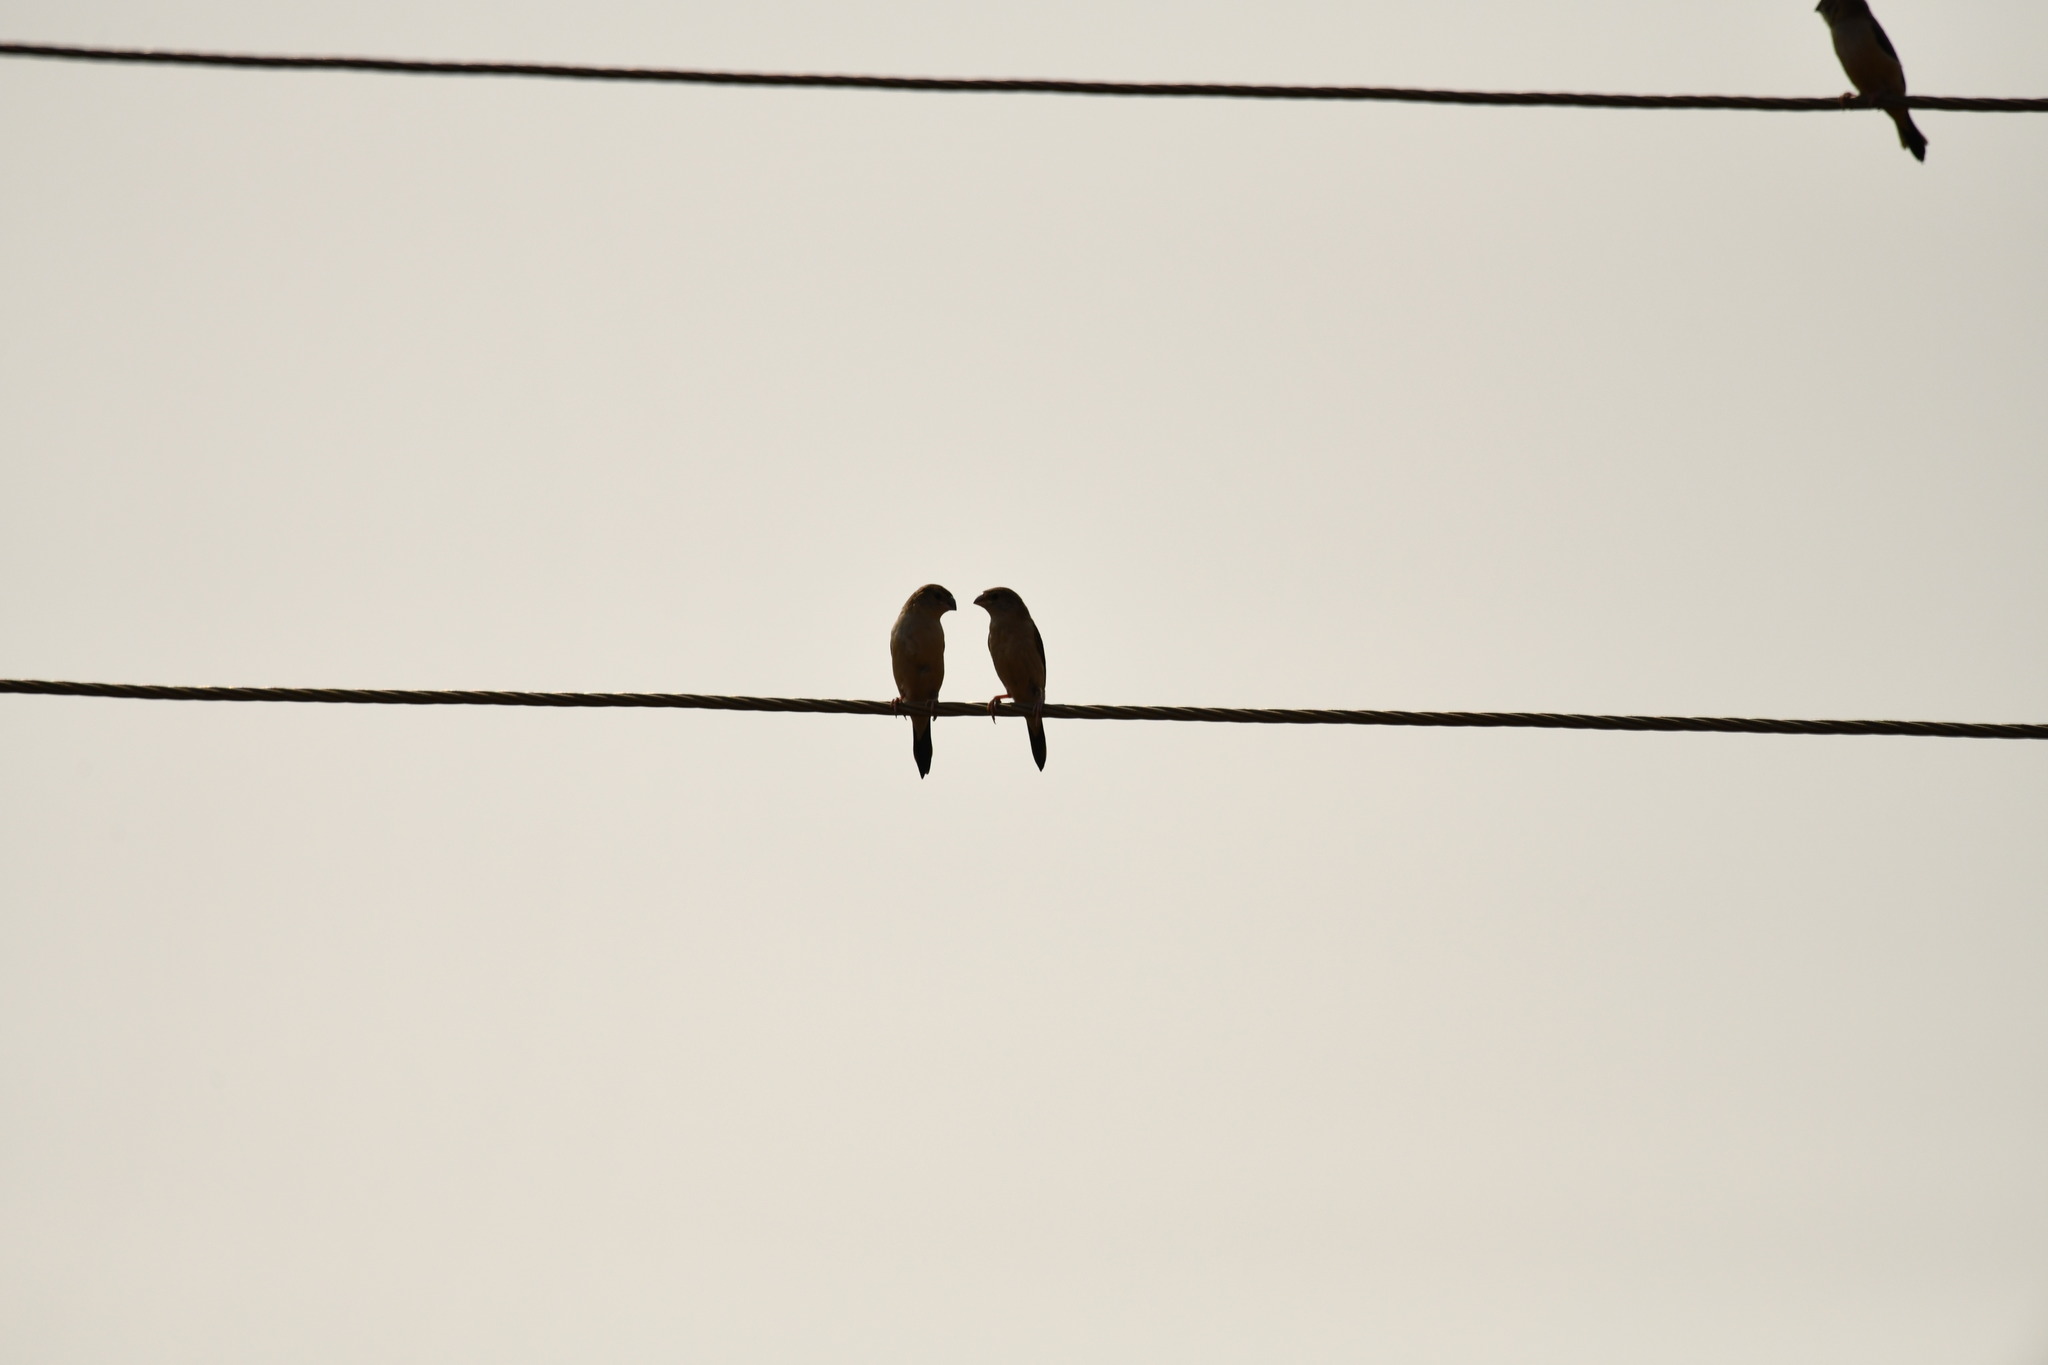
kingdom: Animalia
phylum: Chordata
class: Aves
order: Passeriformes
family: Estrildidae
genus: Euodice
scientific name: Euodice malabarica
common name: Indian silverbill
